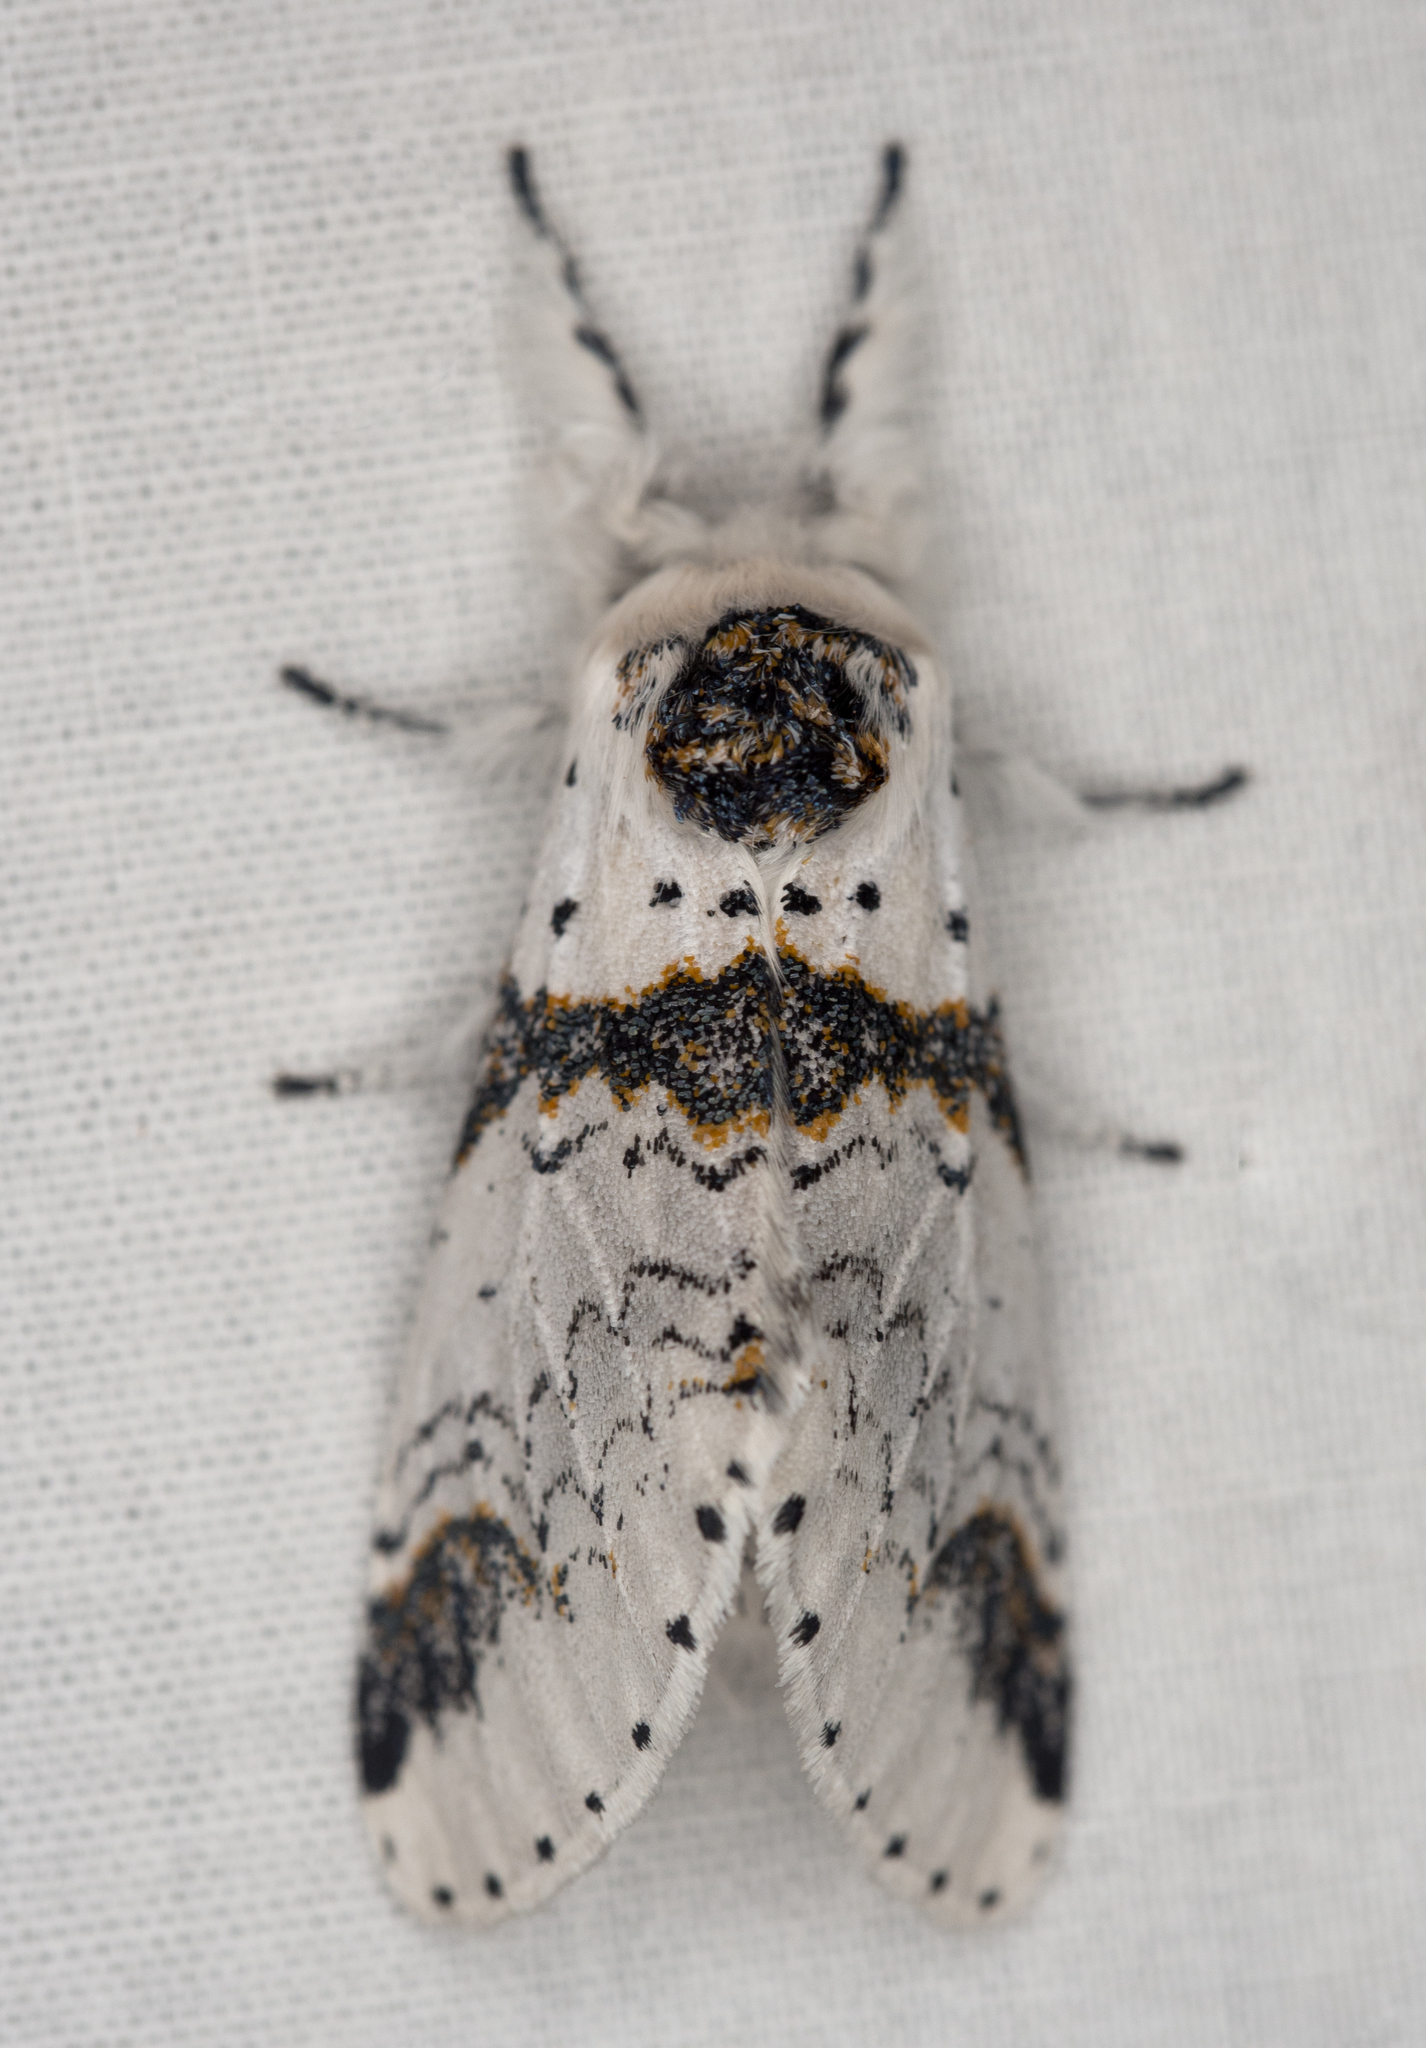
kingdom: Animalia
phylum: Arthropoda
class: Insecta
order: Lepidoptera
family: Notodontidae
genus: Furcula
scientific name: Furcula scolopendrina
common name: Zigzag furcula moth
